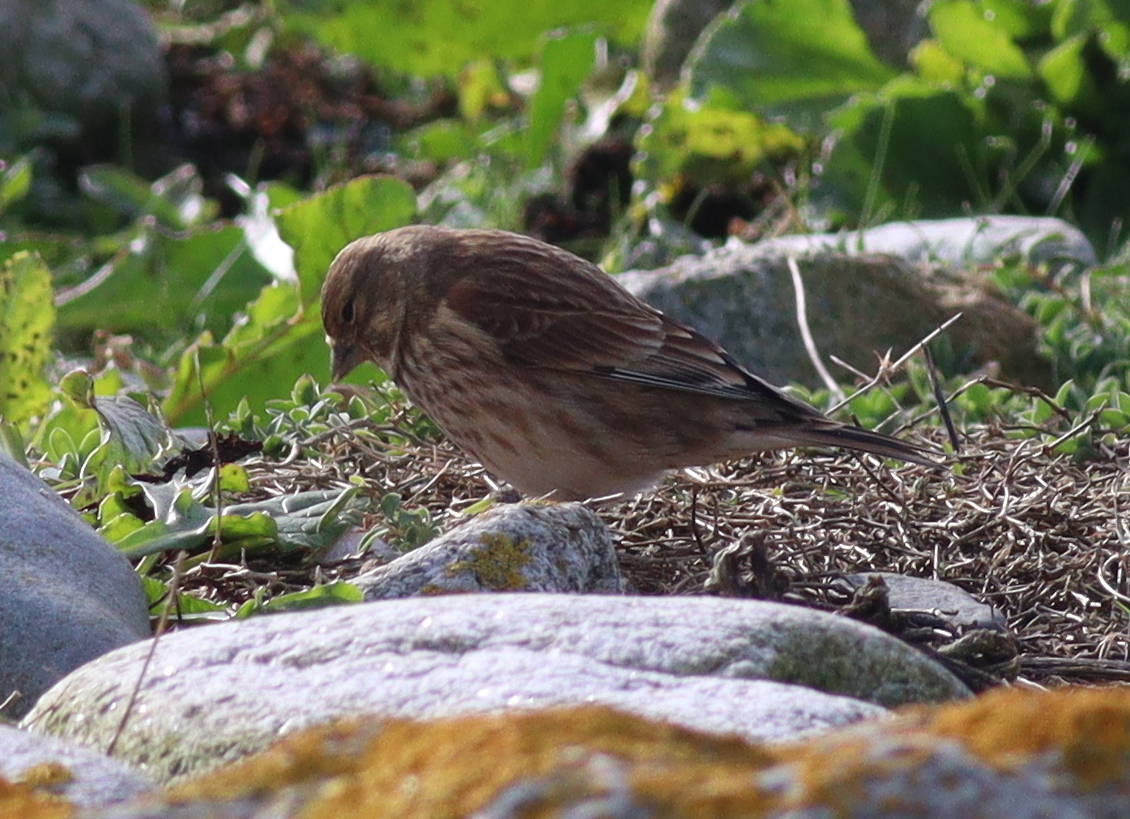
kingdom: Animalia
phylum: Chordata
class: Aves
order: Passeriformes
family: Fringillidae
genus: Linaria
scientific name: Linaria cannabina
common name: Common linnet
